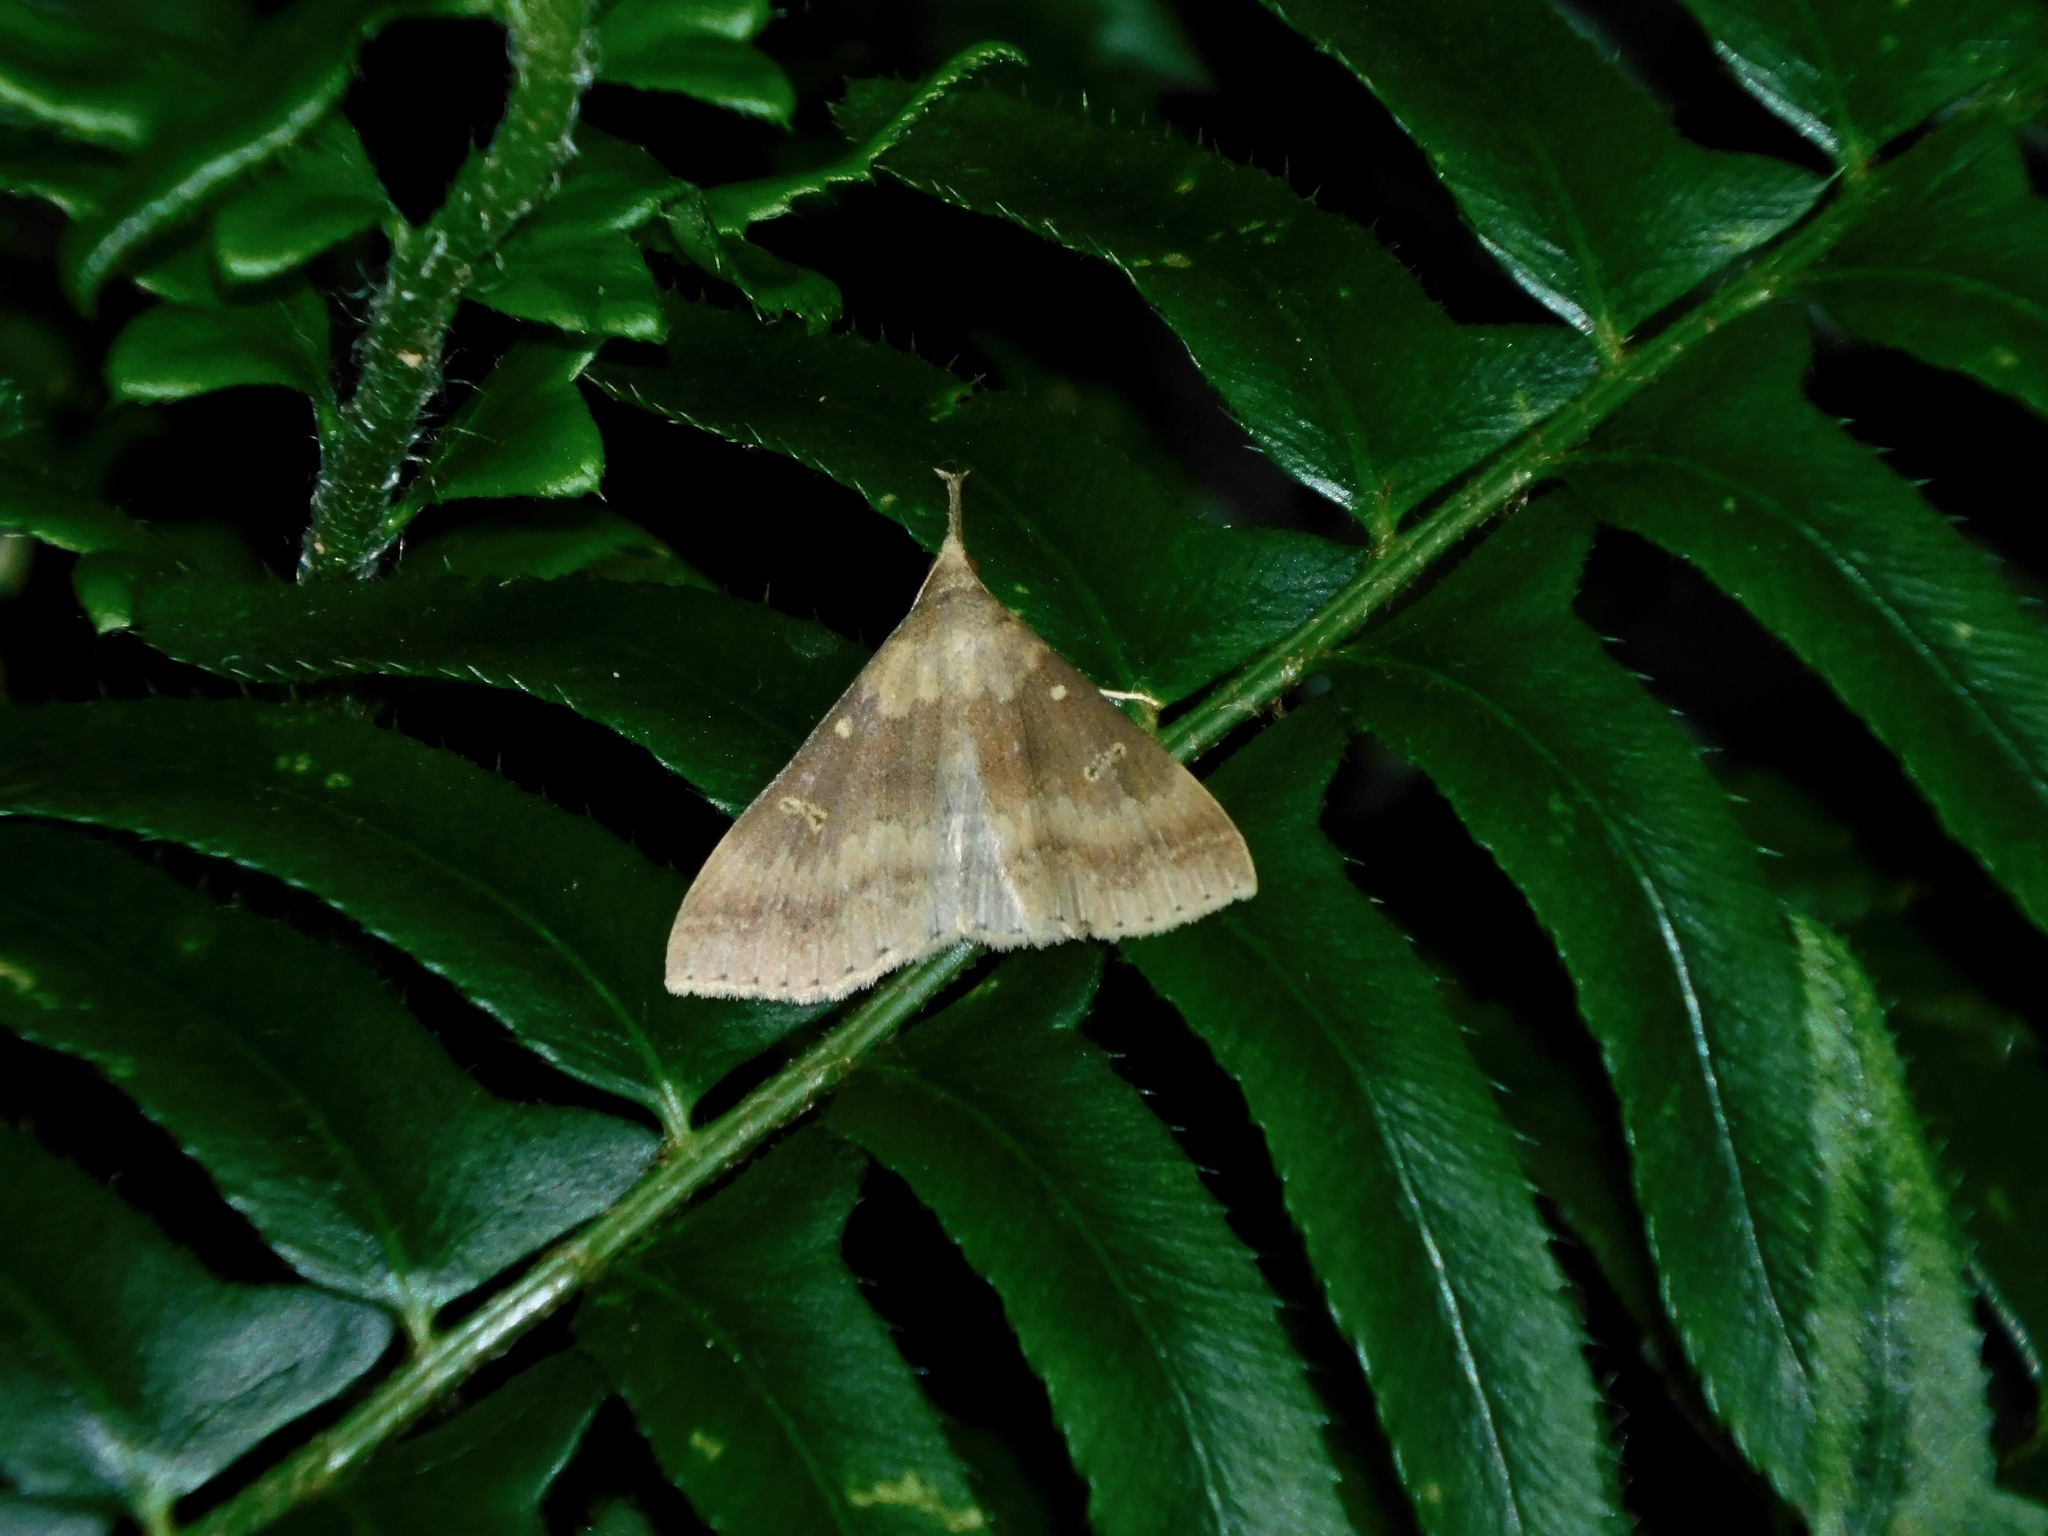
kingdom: Animalia
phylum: Arthropoda
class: Insecta
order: Lepidoptera
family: Erebidae
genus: Renia
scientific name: Renia discoloralis
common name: Discolored renia moth
